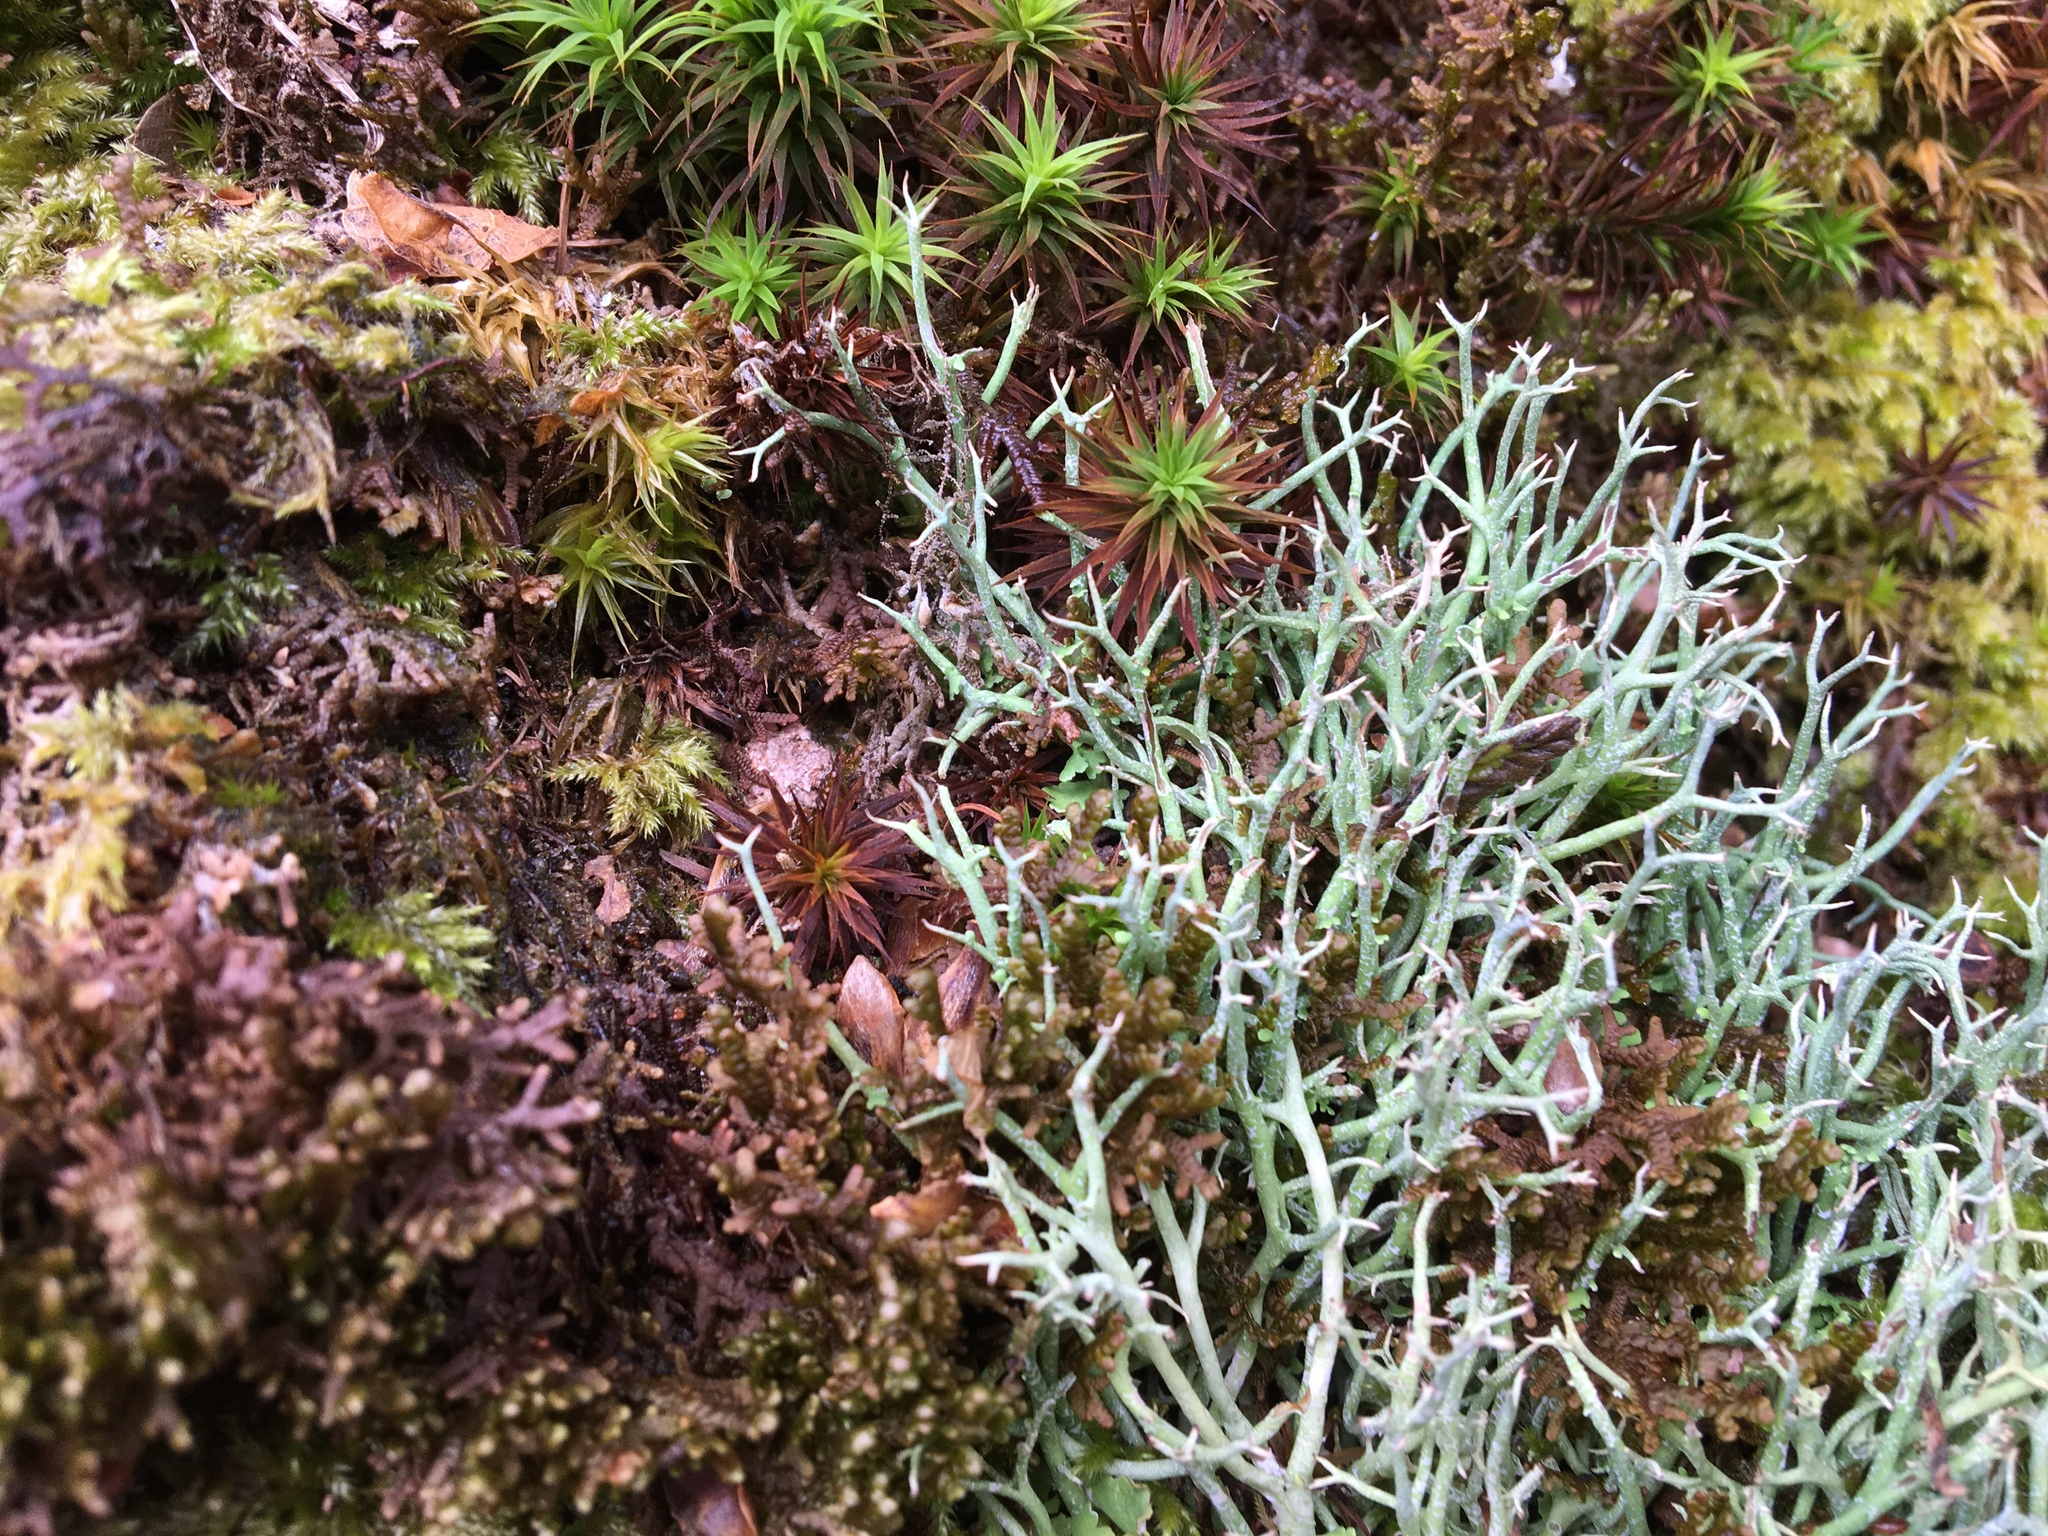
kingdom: Fungi
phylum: Ascomycota
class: Lecanoromycetes
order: Lecanorales
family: Cladoniaceae
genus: Cladonia
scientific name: Cladonia furcata
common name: Many-forked cladonia
